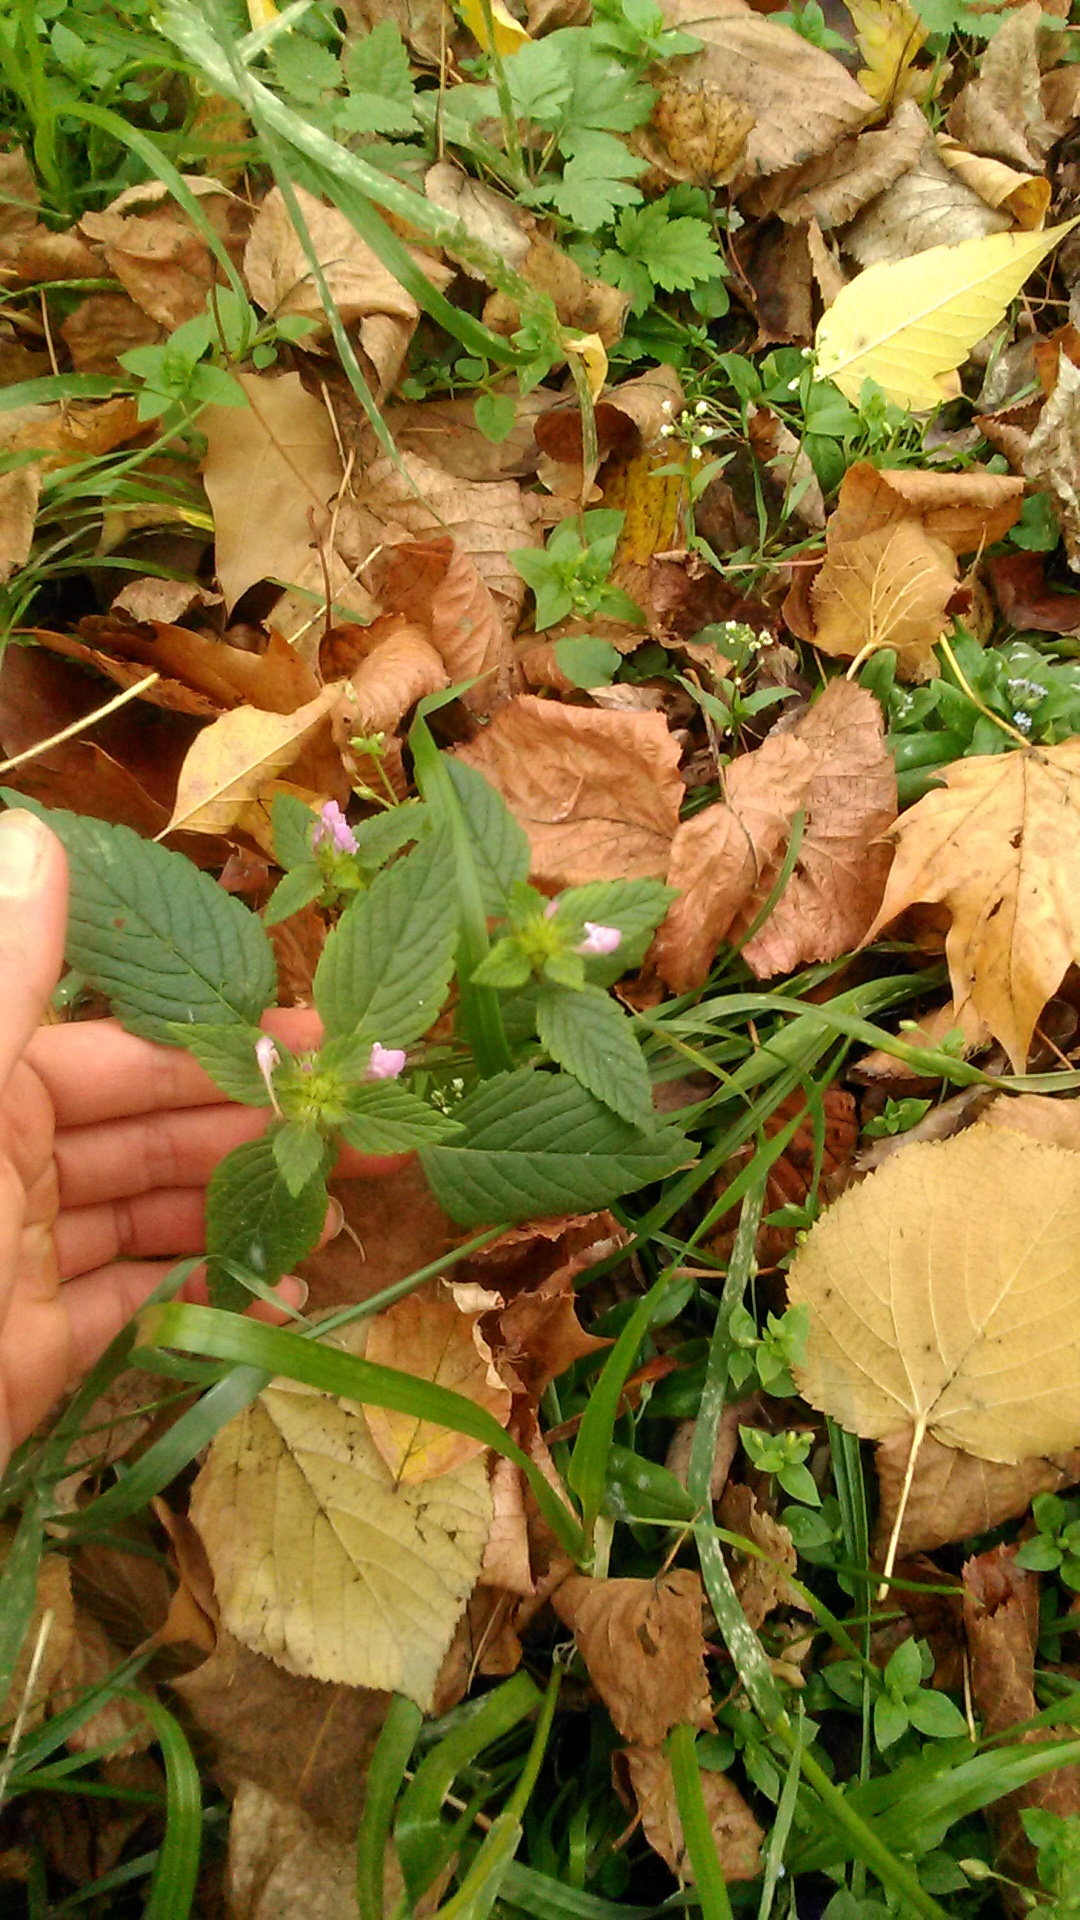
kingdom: Plantae
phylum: Tracheophyta
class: Magnoliopsida
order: Lamiales
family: Lamiaceae
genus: Galeopsis
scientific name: Galeopsis bifida
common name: Bifid hemp-nettle
